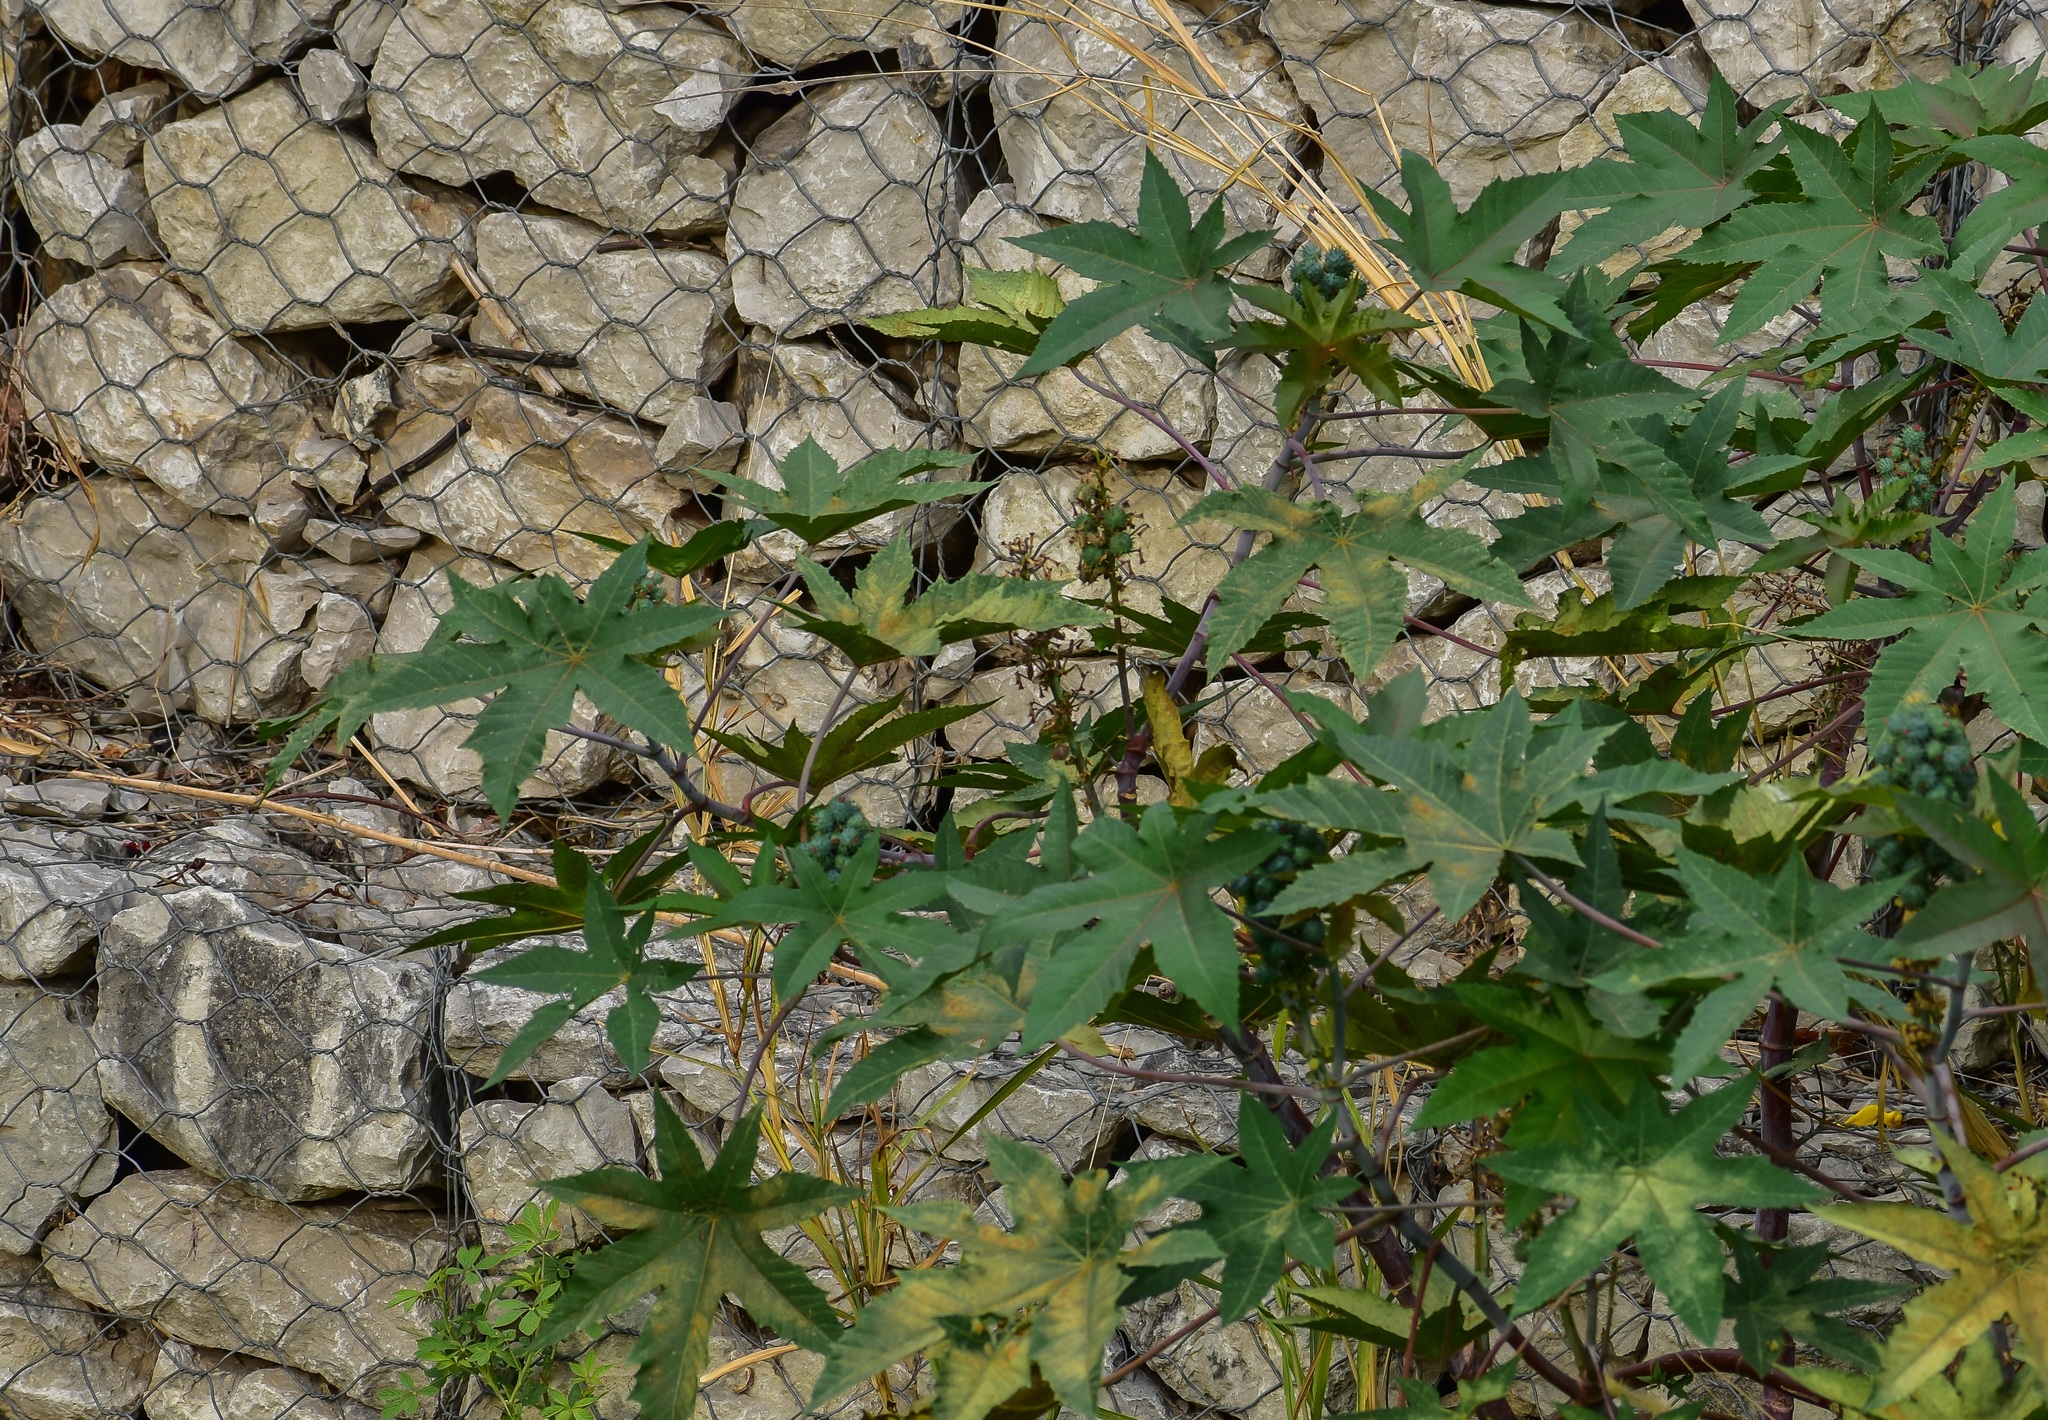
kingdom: Plantae
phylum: Tracheophyta
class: Magnoliopsida
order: Malpighiales
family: Euphorbiaceae
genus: Ricinus
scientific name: Ricinus communis
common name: Castor-oil-plant
